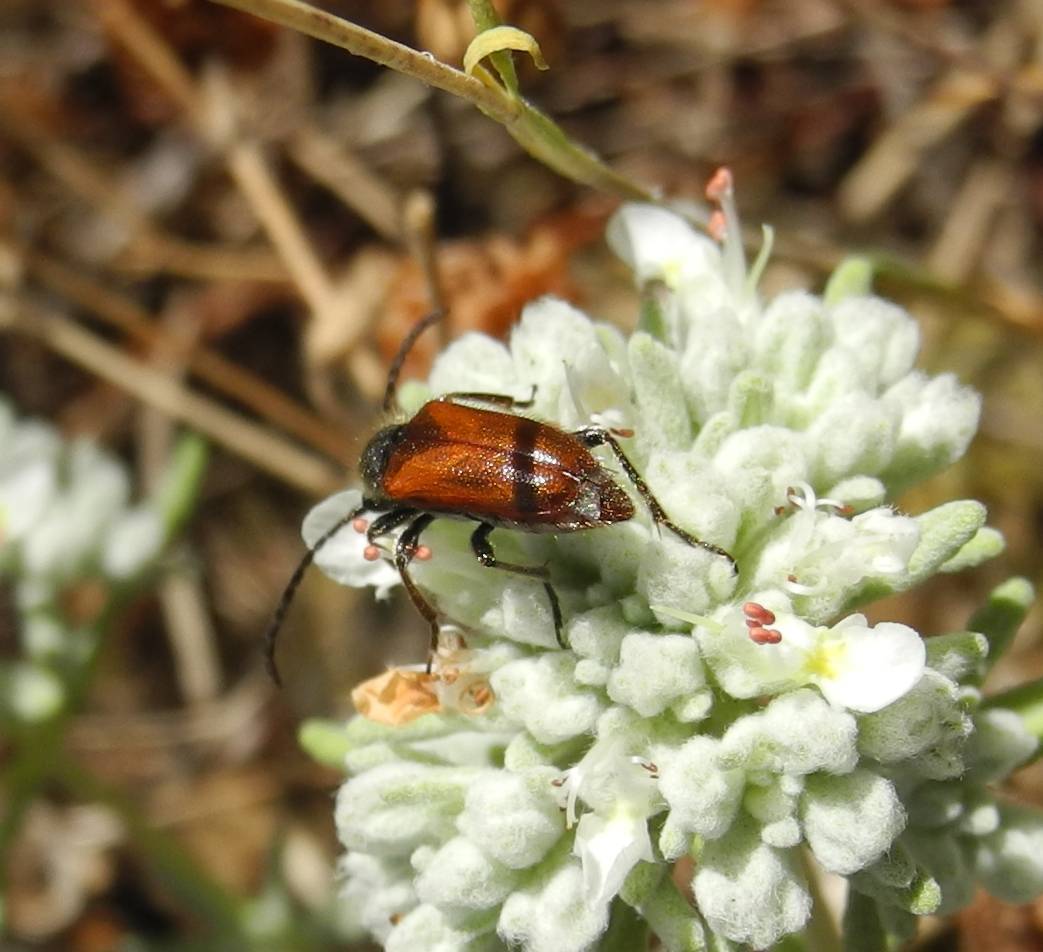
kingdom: Animalia
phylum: Arthropoda
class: Insecta
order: Coleoptera
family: Cerambycidae
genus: Pseudovadonia
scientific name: Pseudovadonia livida
